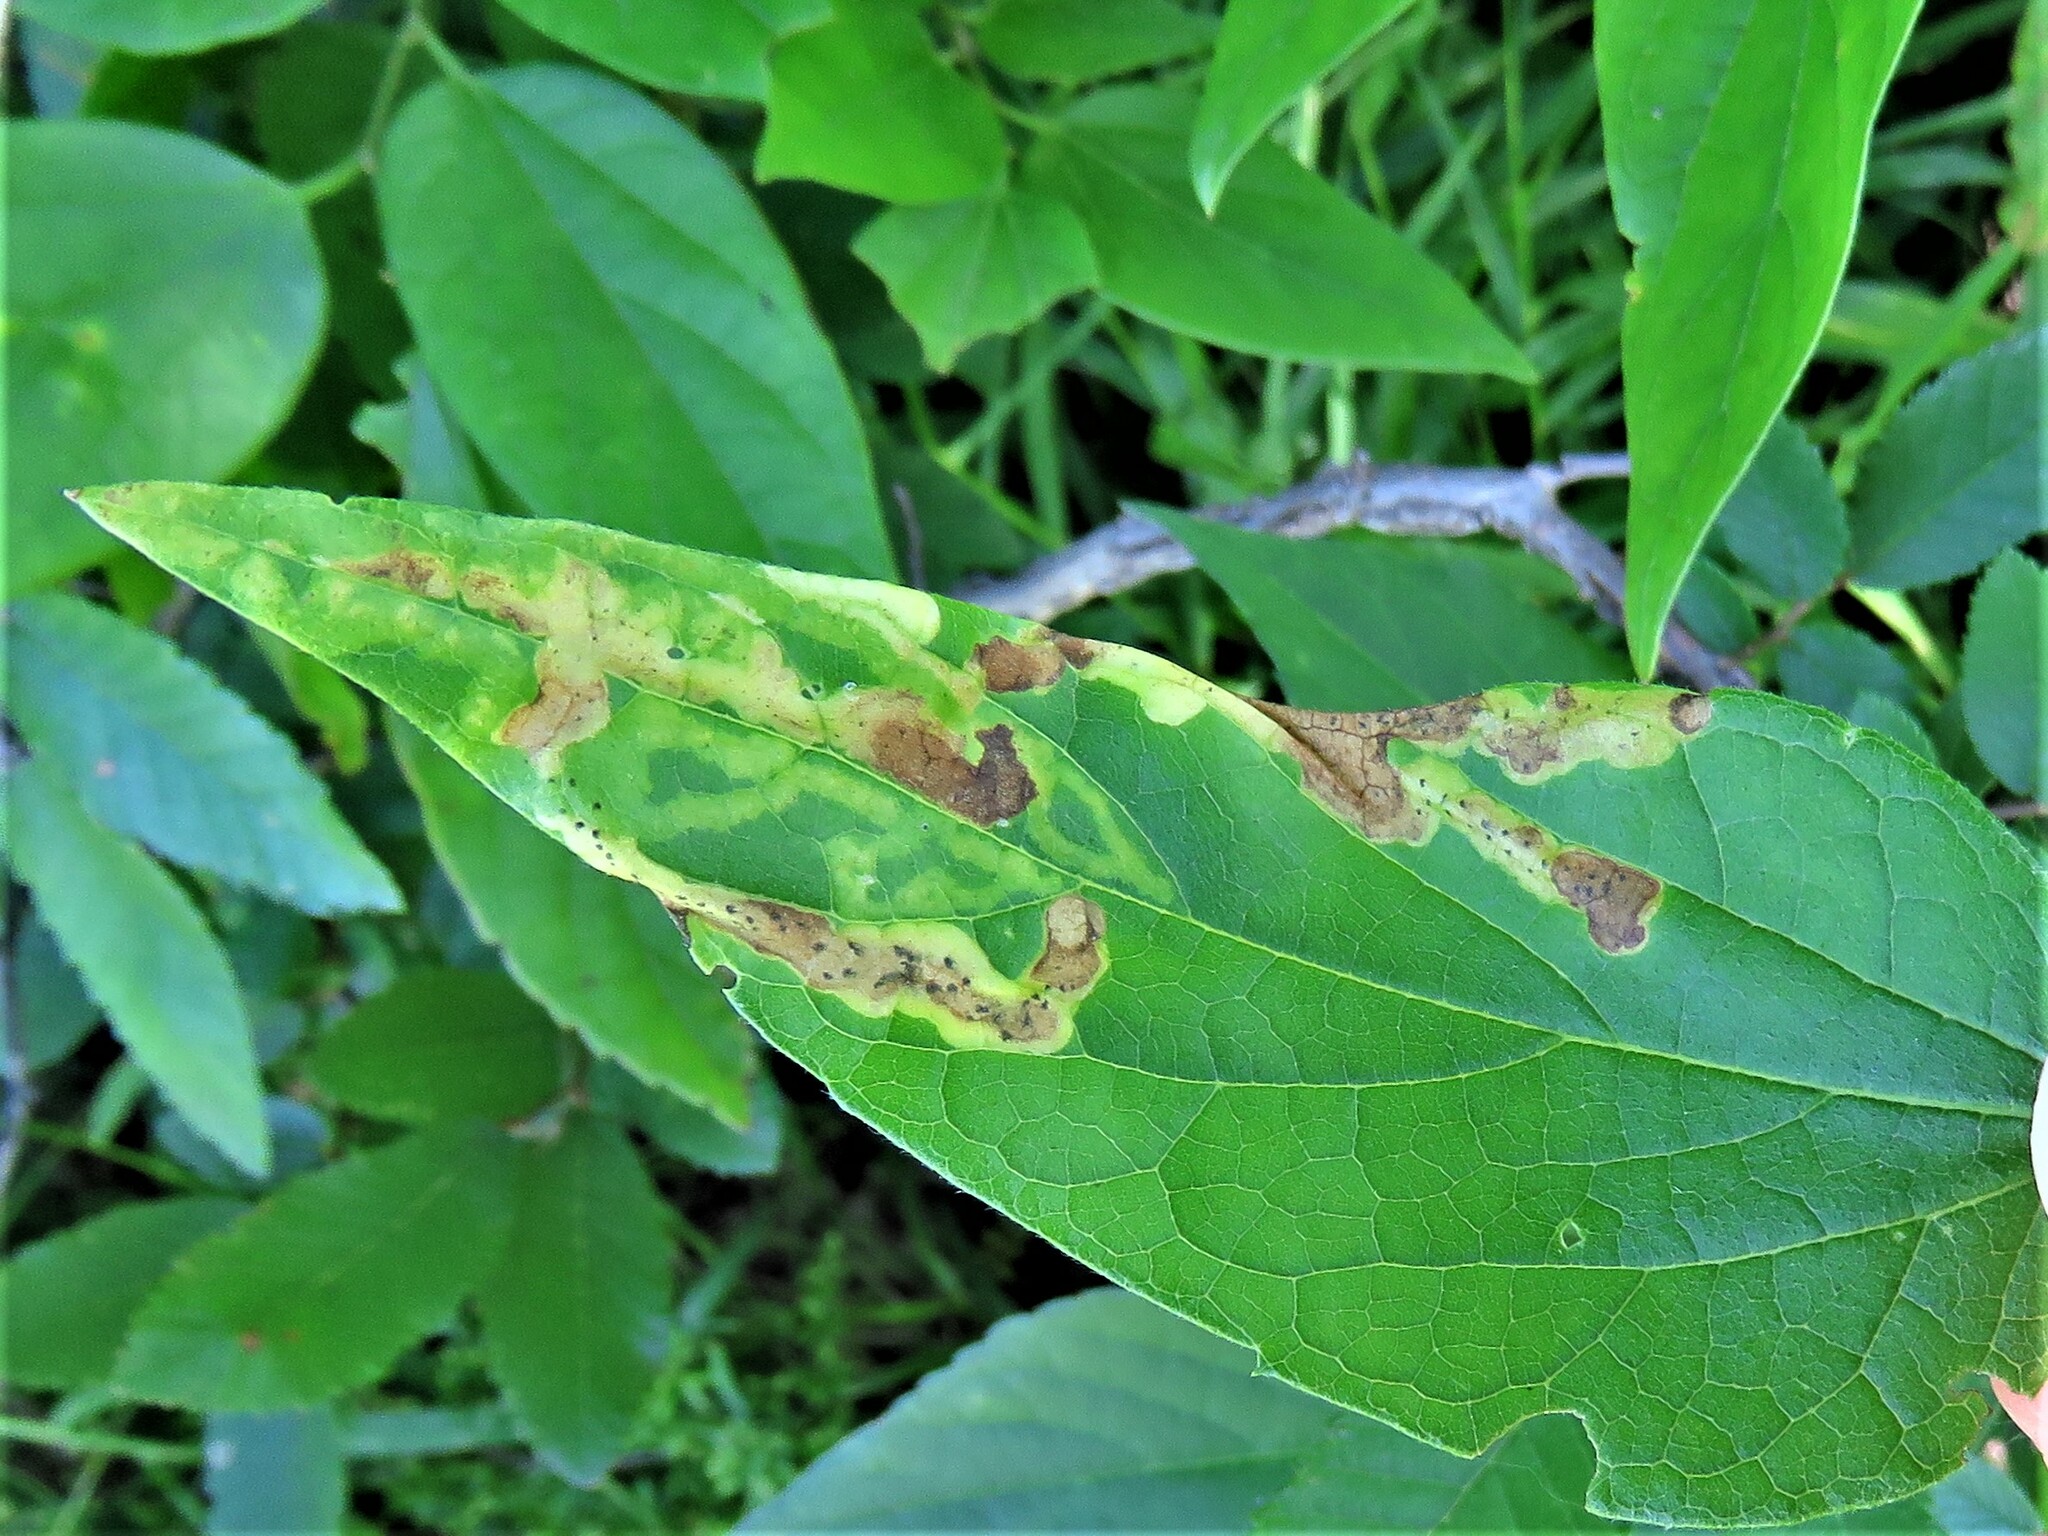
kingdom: Animalia
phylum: Arthropoda
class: Insecta
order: Diptera
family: Agromyzidae
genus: Agromyza
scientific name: Agromyza aristata
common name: Elm agromyzid leafminer
